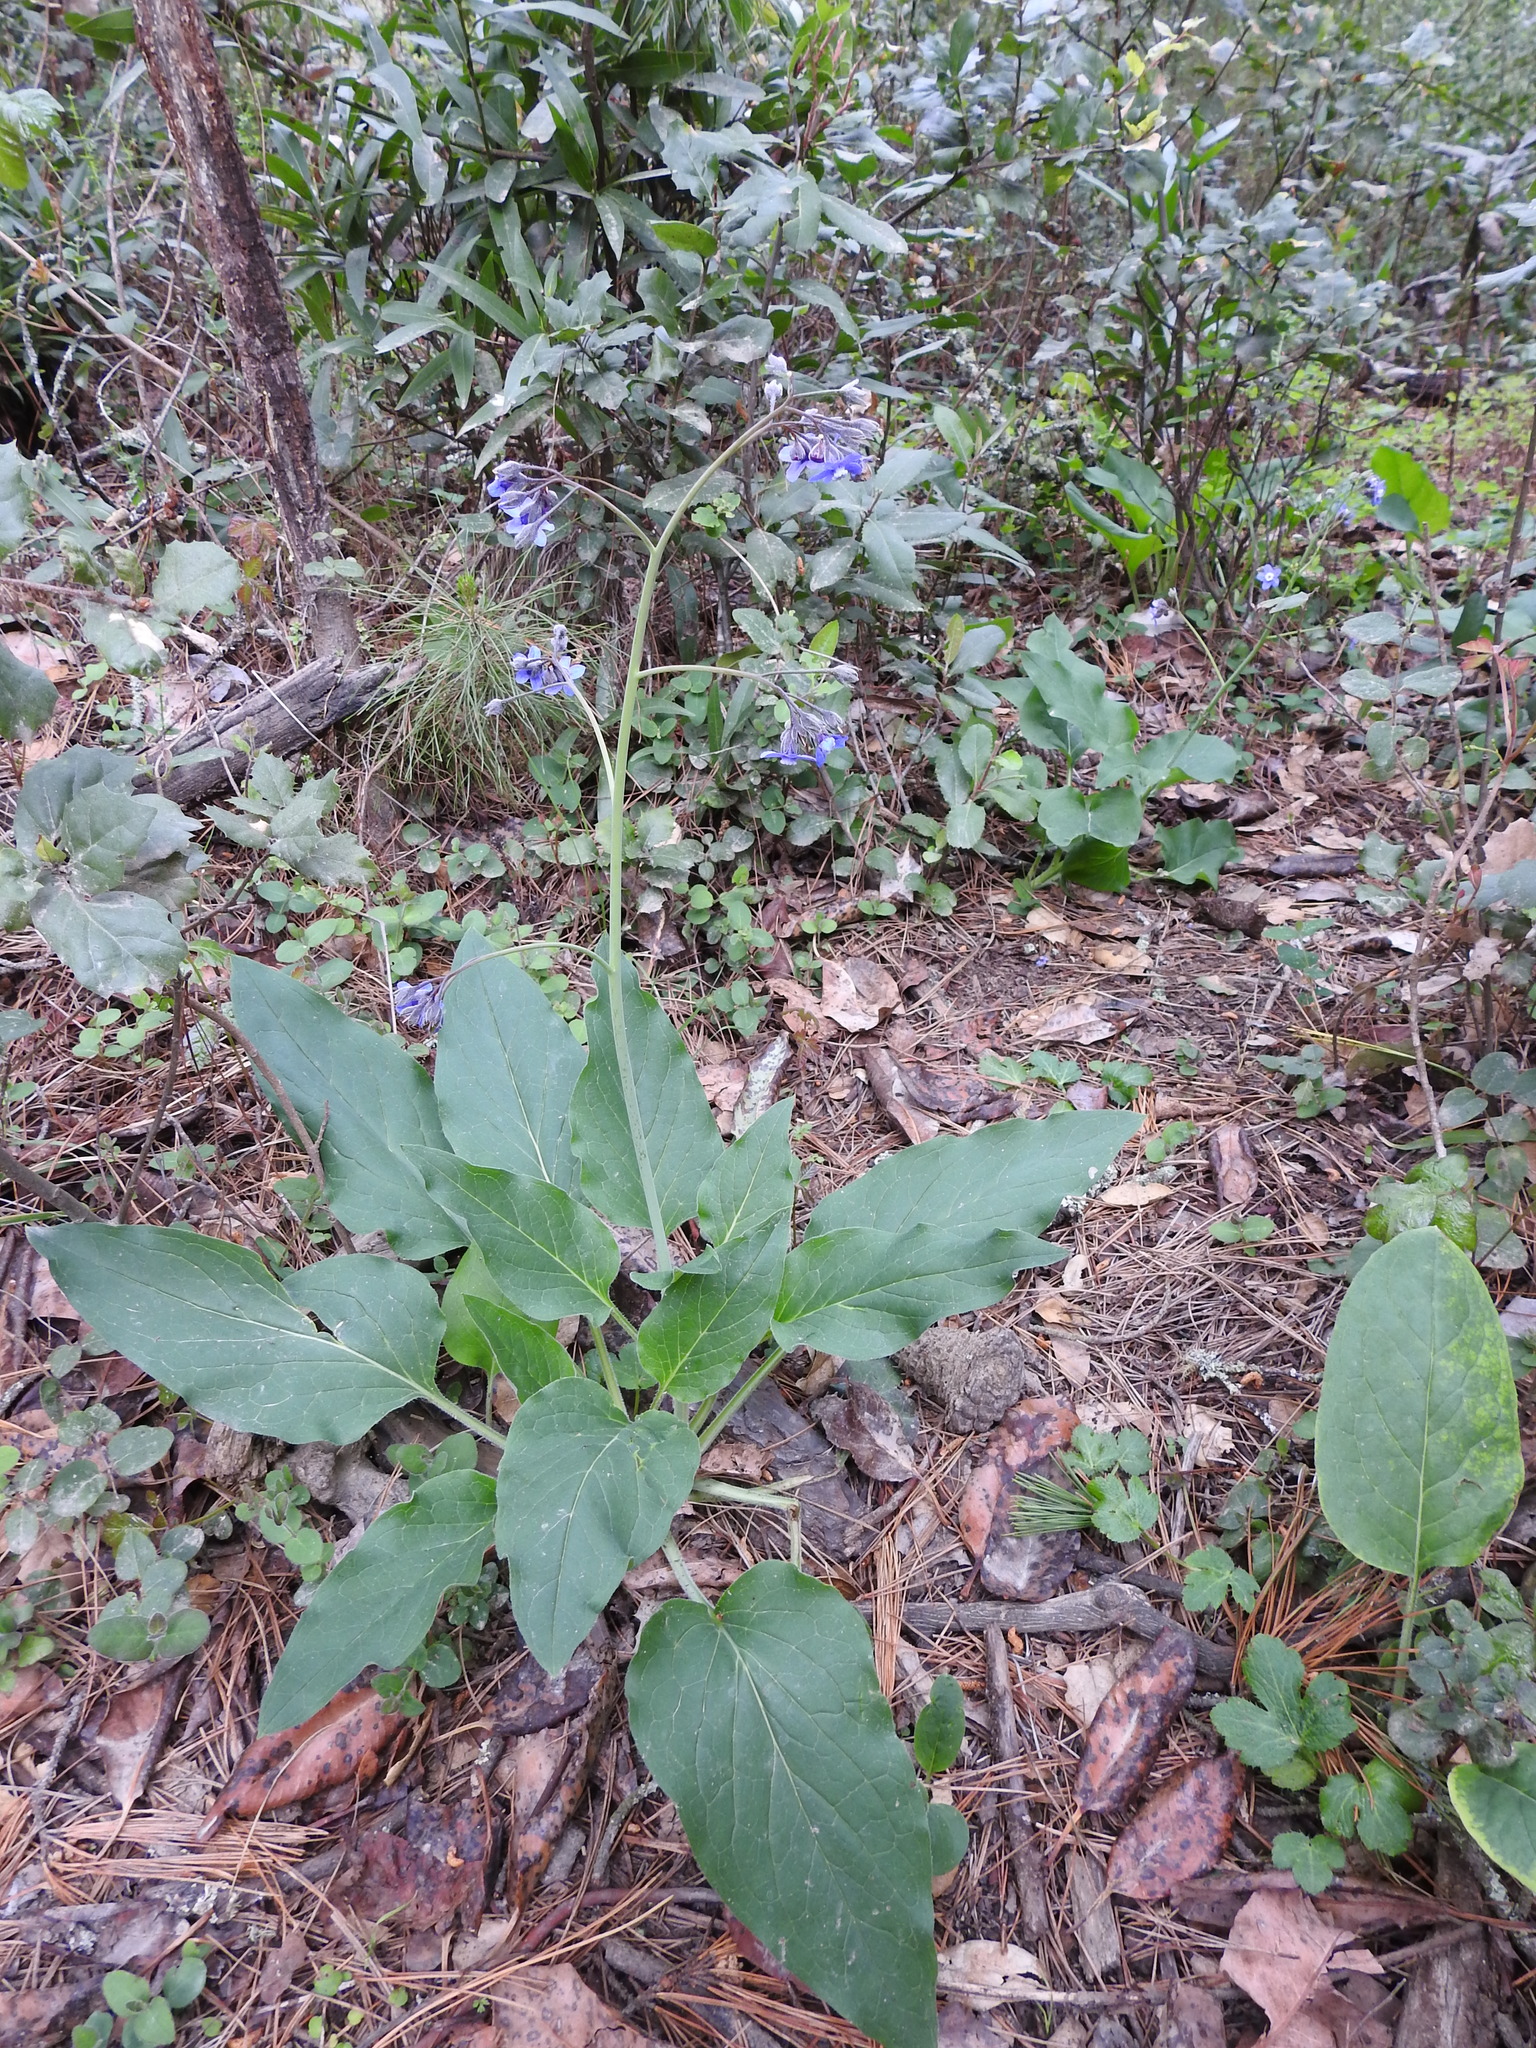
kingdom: Plantae
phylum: Tracheophyta
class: Magnoliopsida
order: Boraginales
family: Boraginaceae
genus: Adelinia
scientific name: Adelinia grande
